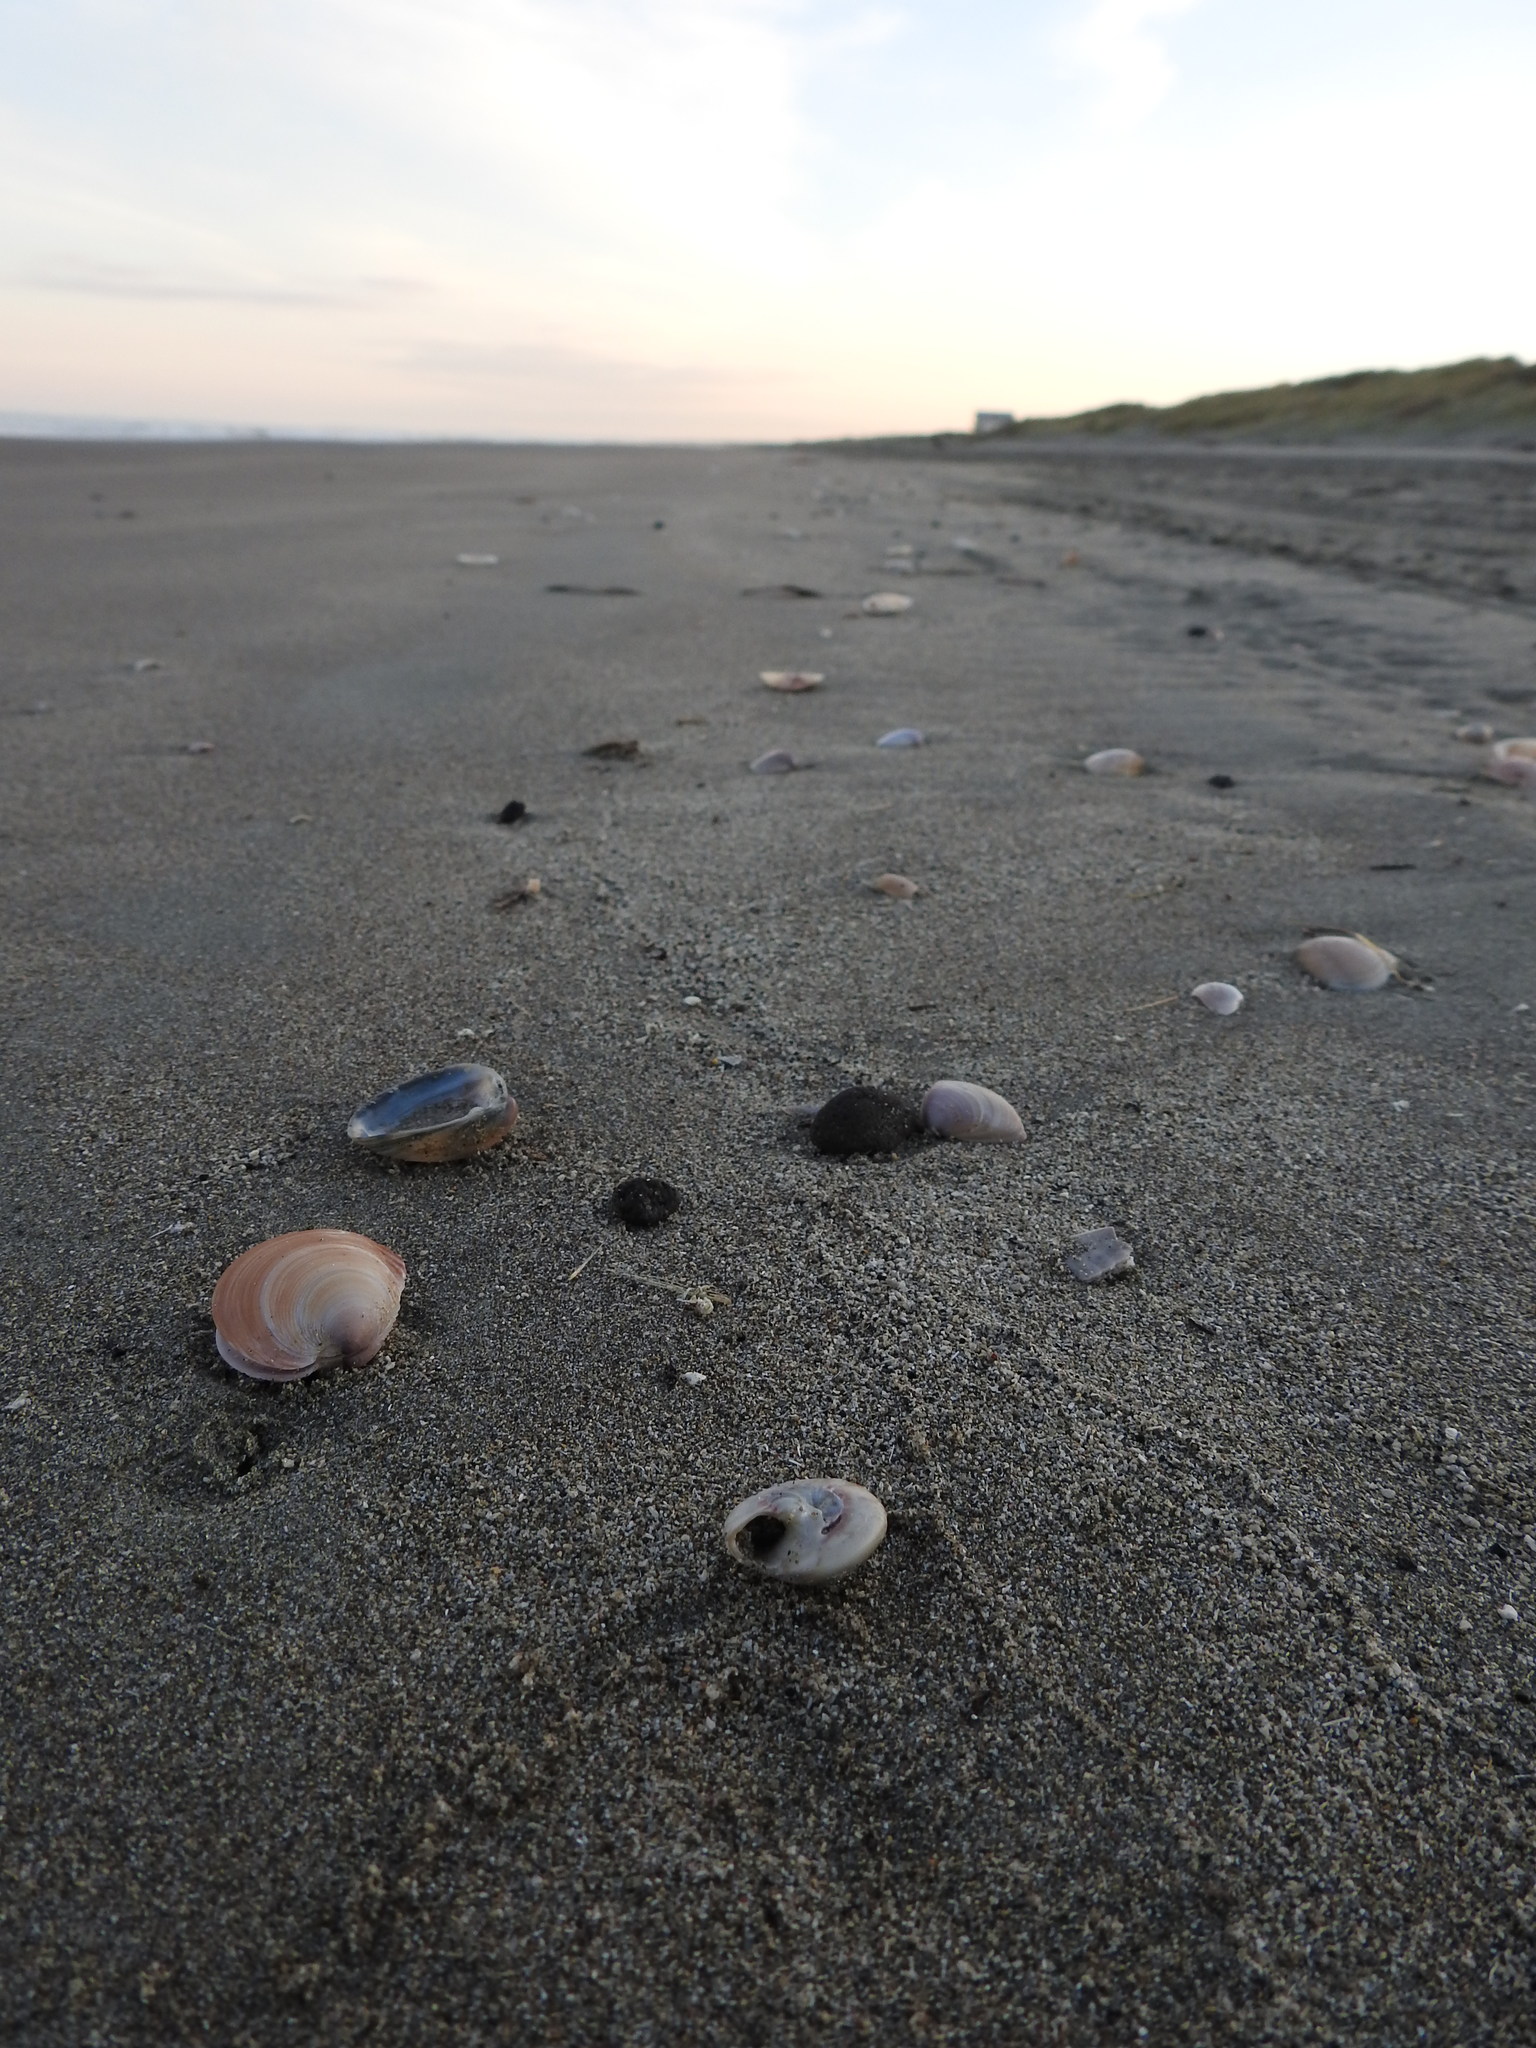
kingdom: Animalia
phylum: Mollusca
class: Gastropoda
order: Trochida
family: Trochidae
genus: Zethalia
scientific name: Zethalia zelandica
